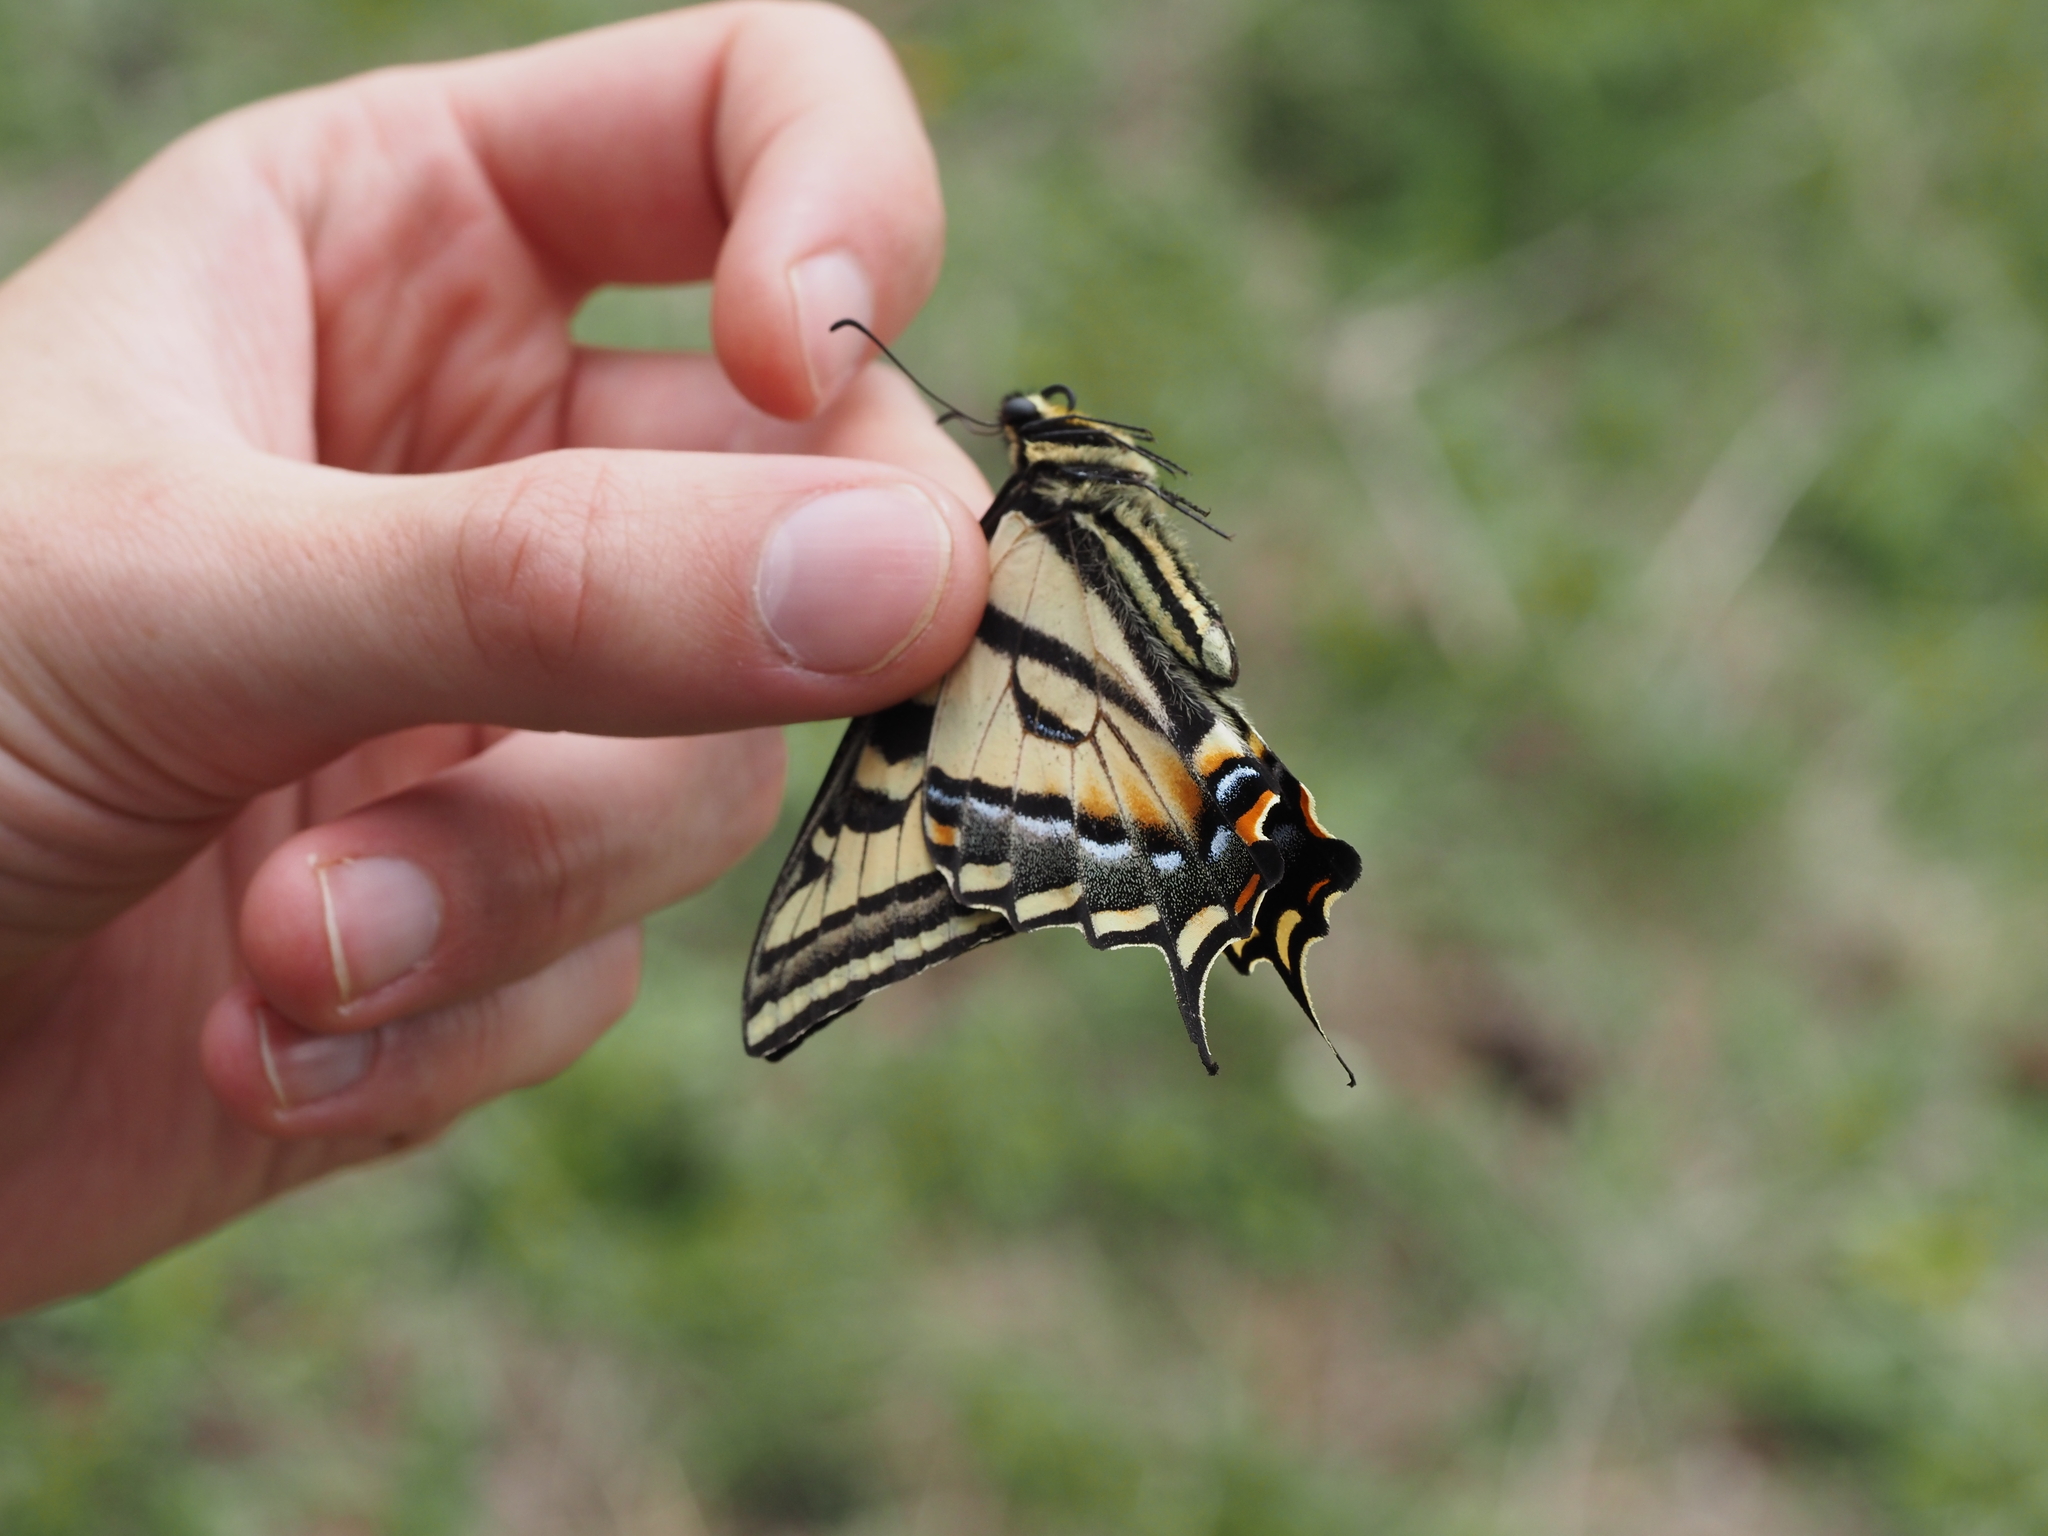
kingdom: Animalia
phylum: Arthropoda
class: Insecta
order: Lepidoptera
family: Papilionidae
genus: Papilio
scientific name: Papilio rutulus
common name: Western tiger swallowtail
